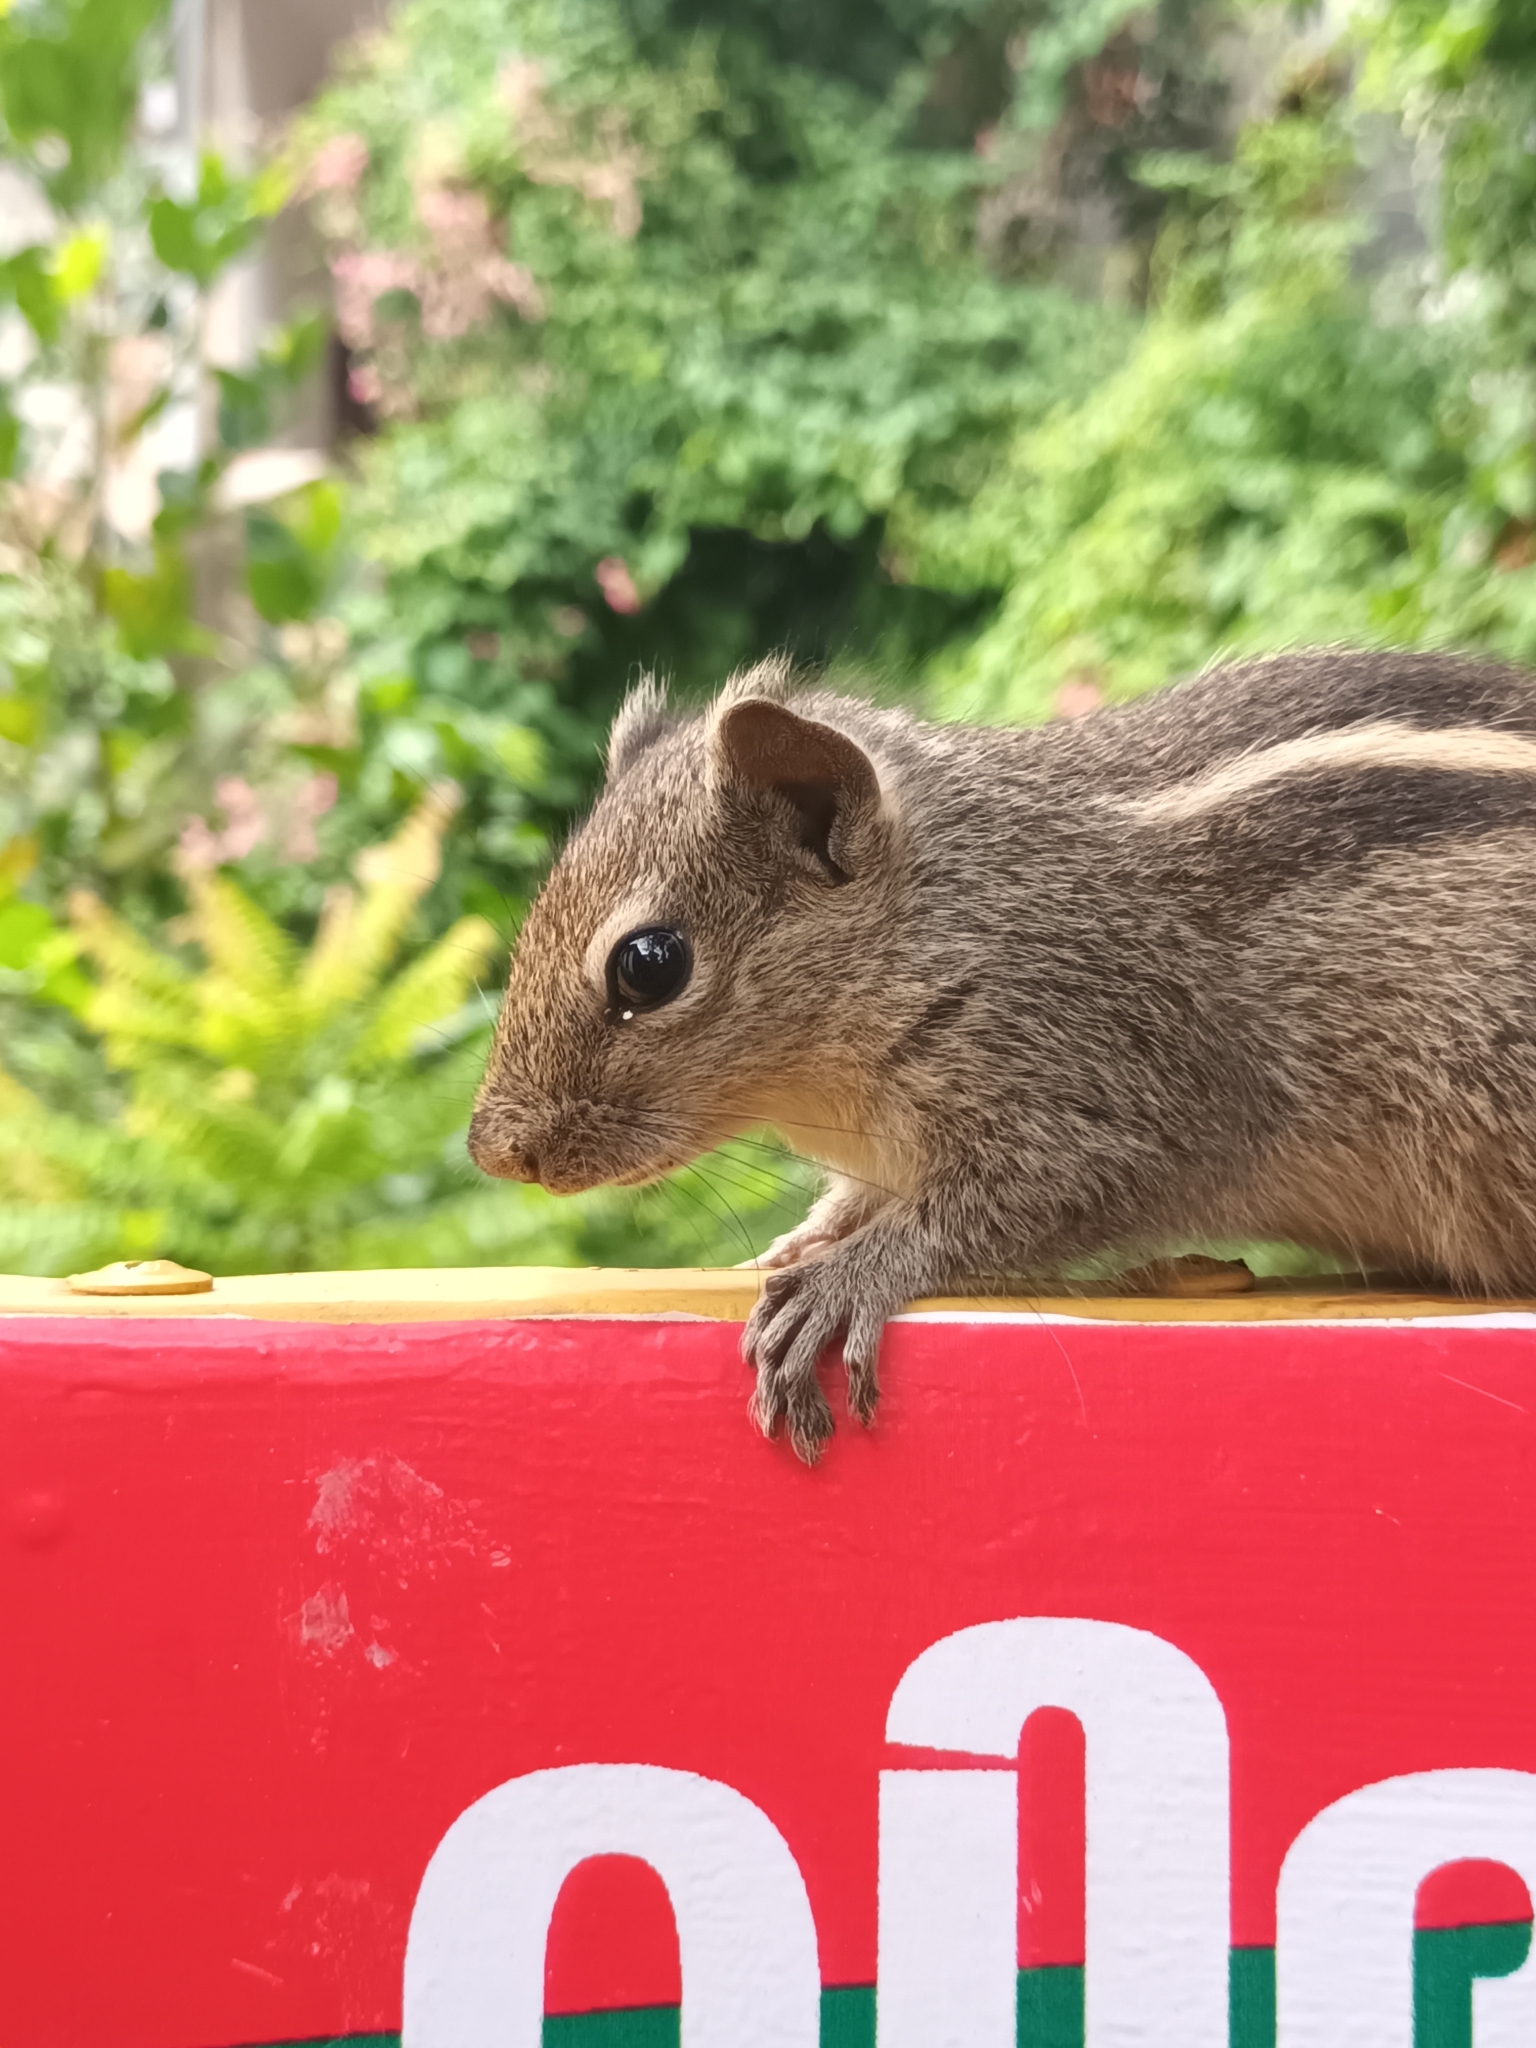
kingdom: Animalia
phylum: Chordata
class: Mammalia
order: Rodentia
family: Sciuridae
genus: Funambulus
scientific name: Funambulus palmarum
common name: Indian palm squirrel
